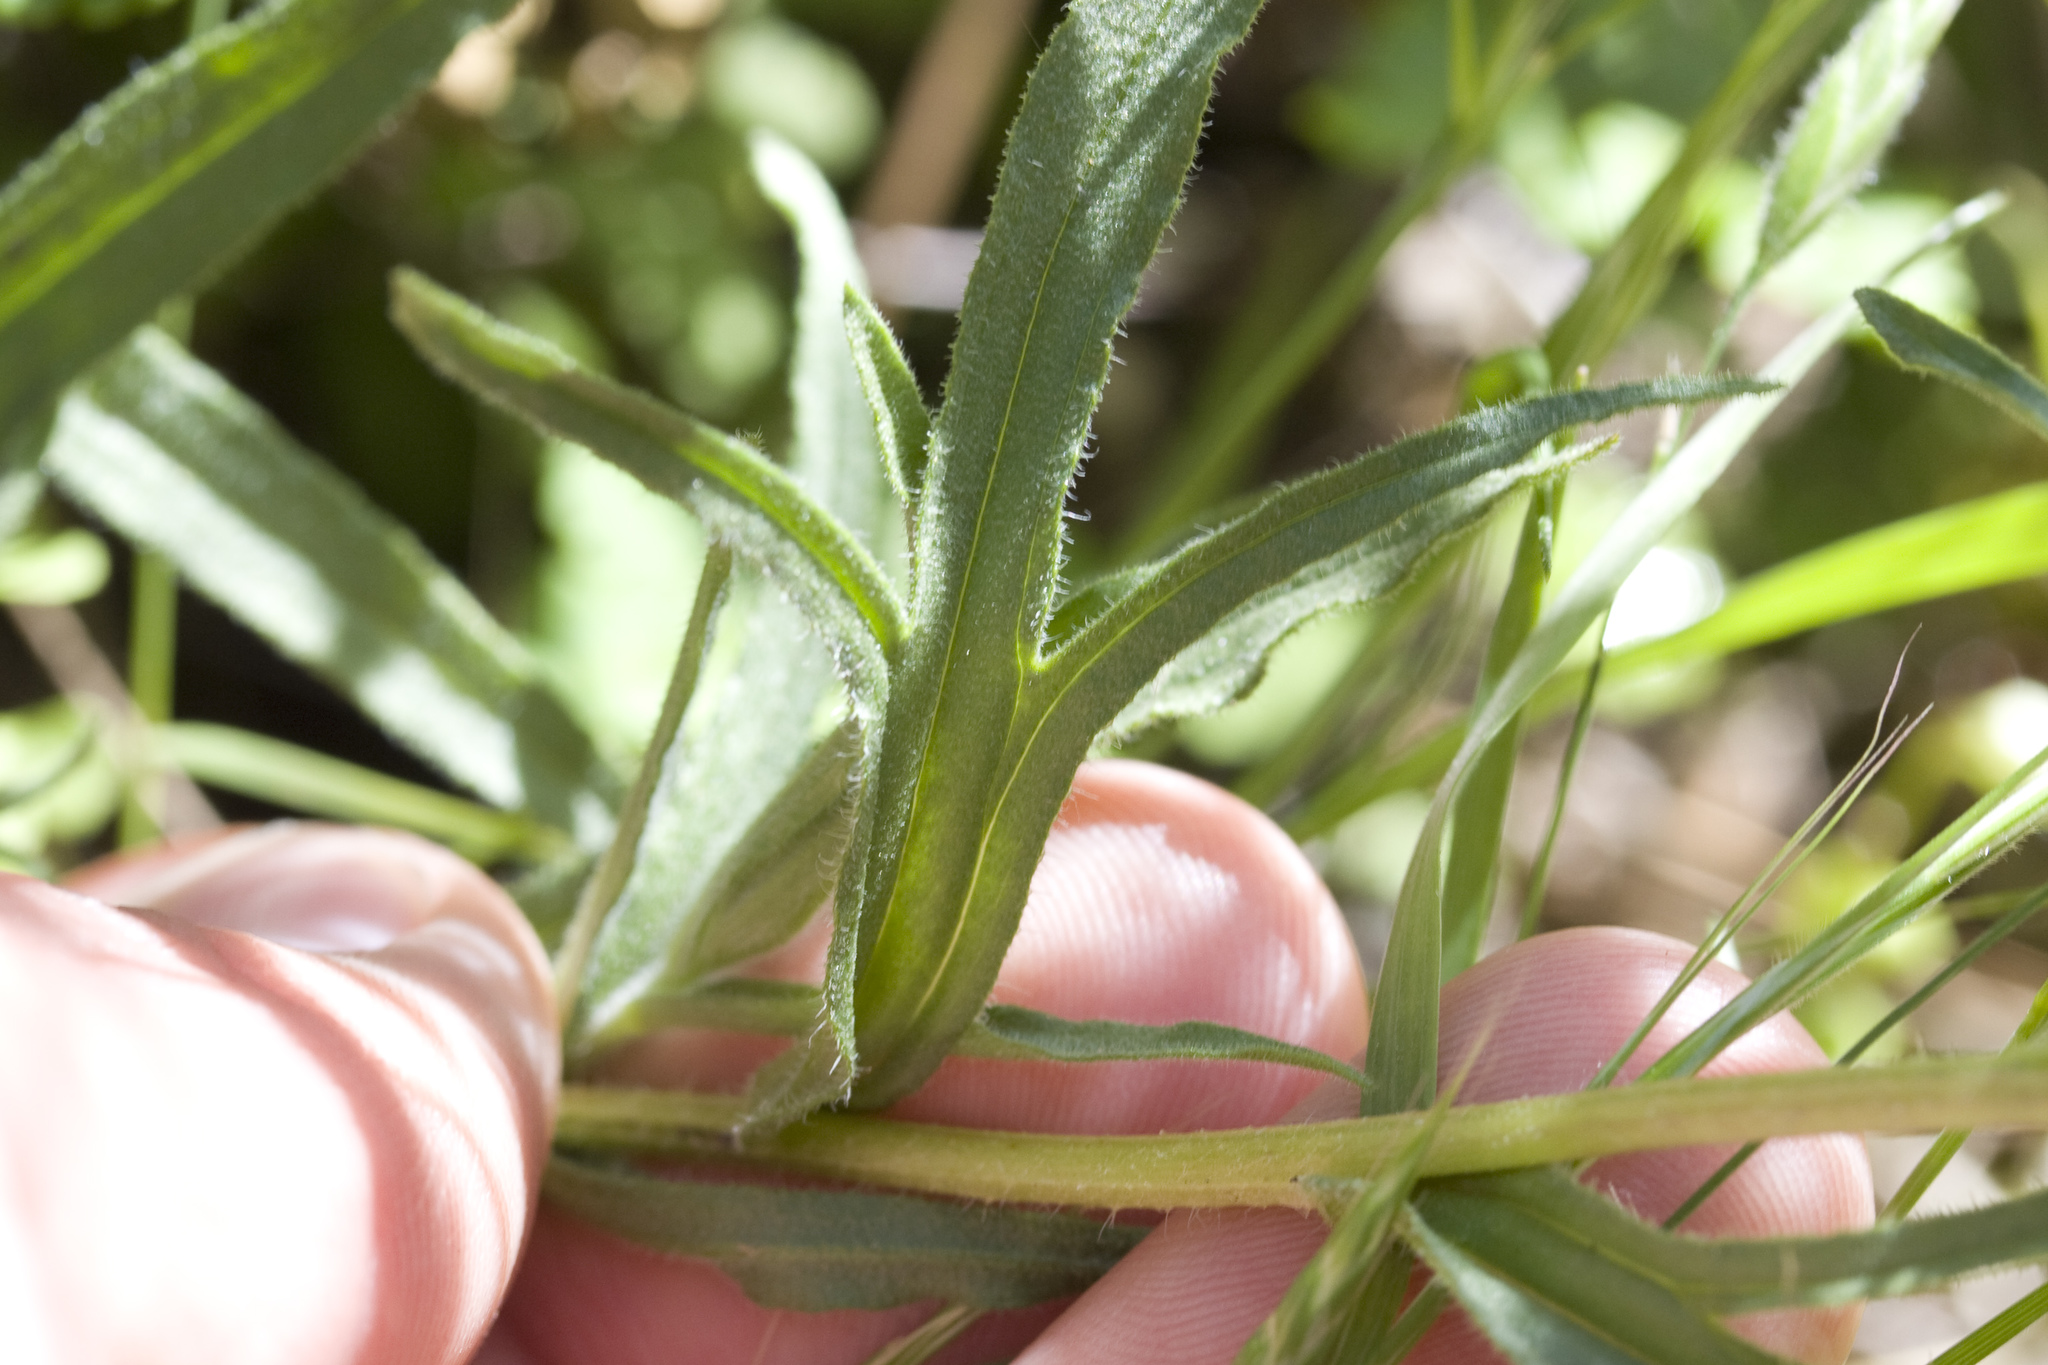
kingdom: Plantae
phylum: Tracheophyta
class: Magnoliopsida
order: Lamiales
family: Orobanchaceae
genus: Castilleja
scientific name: Castilleja affinis
